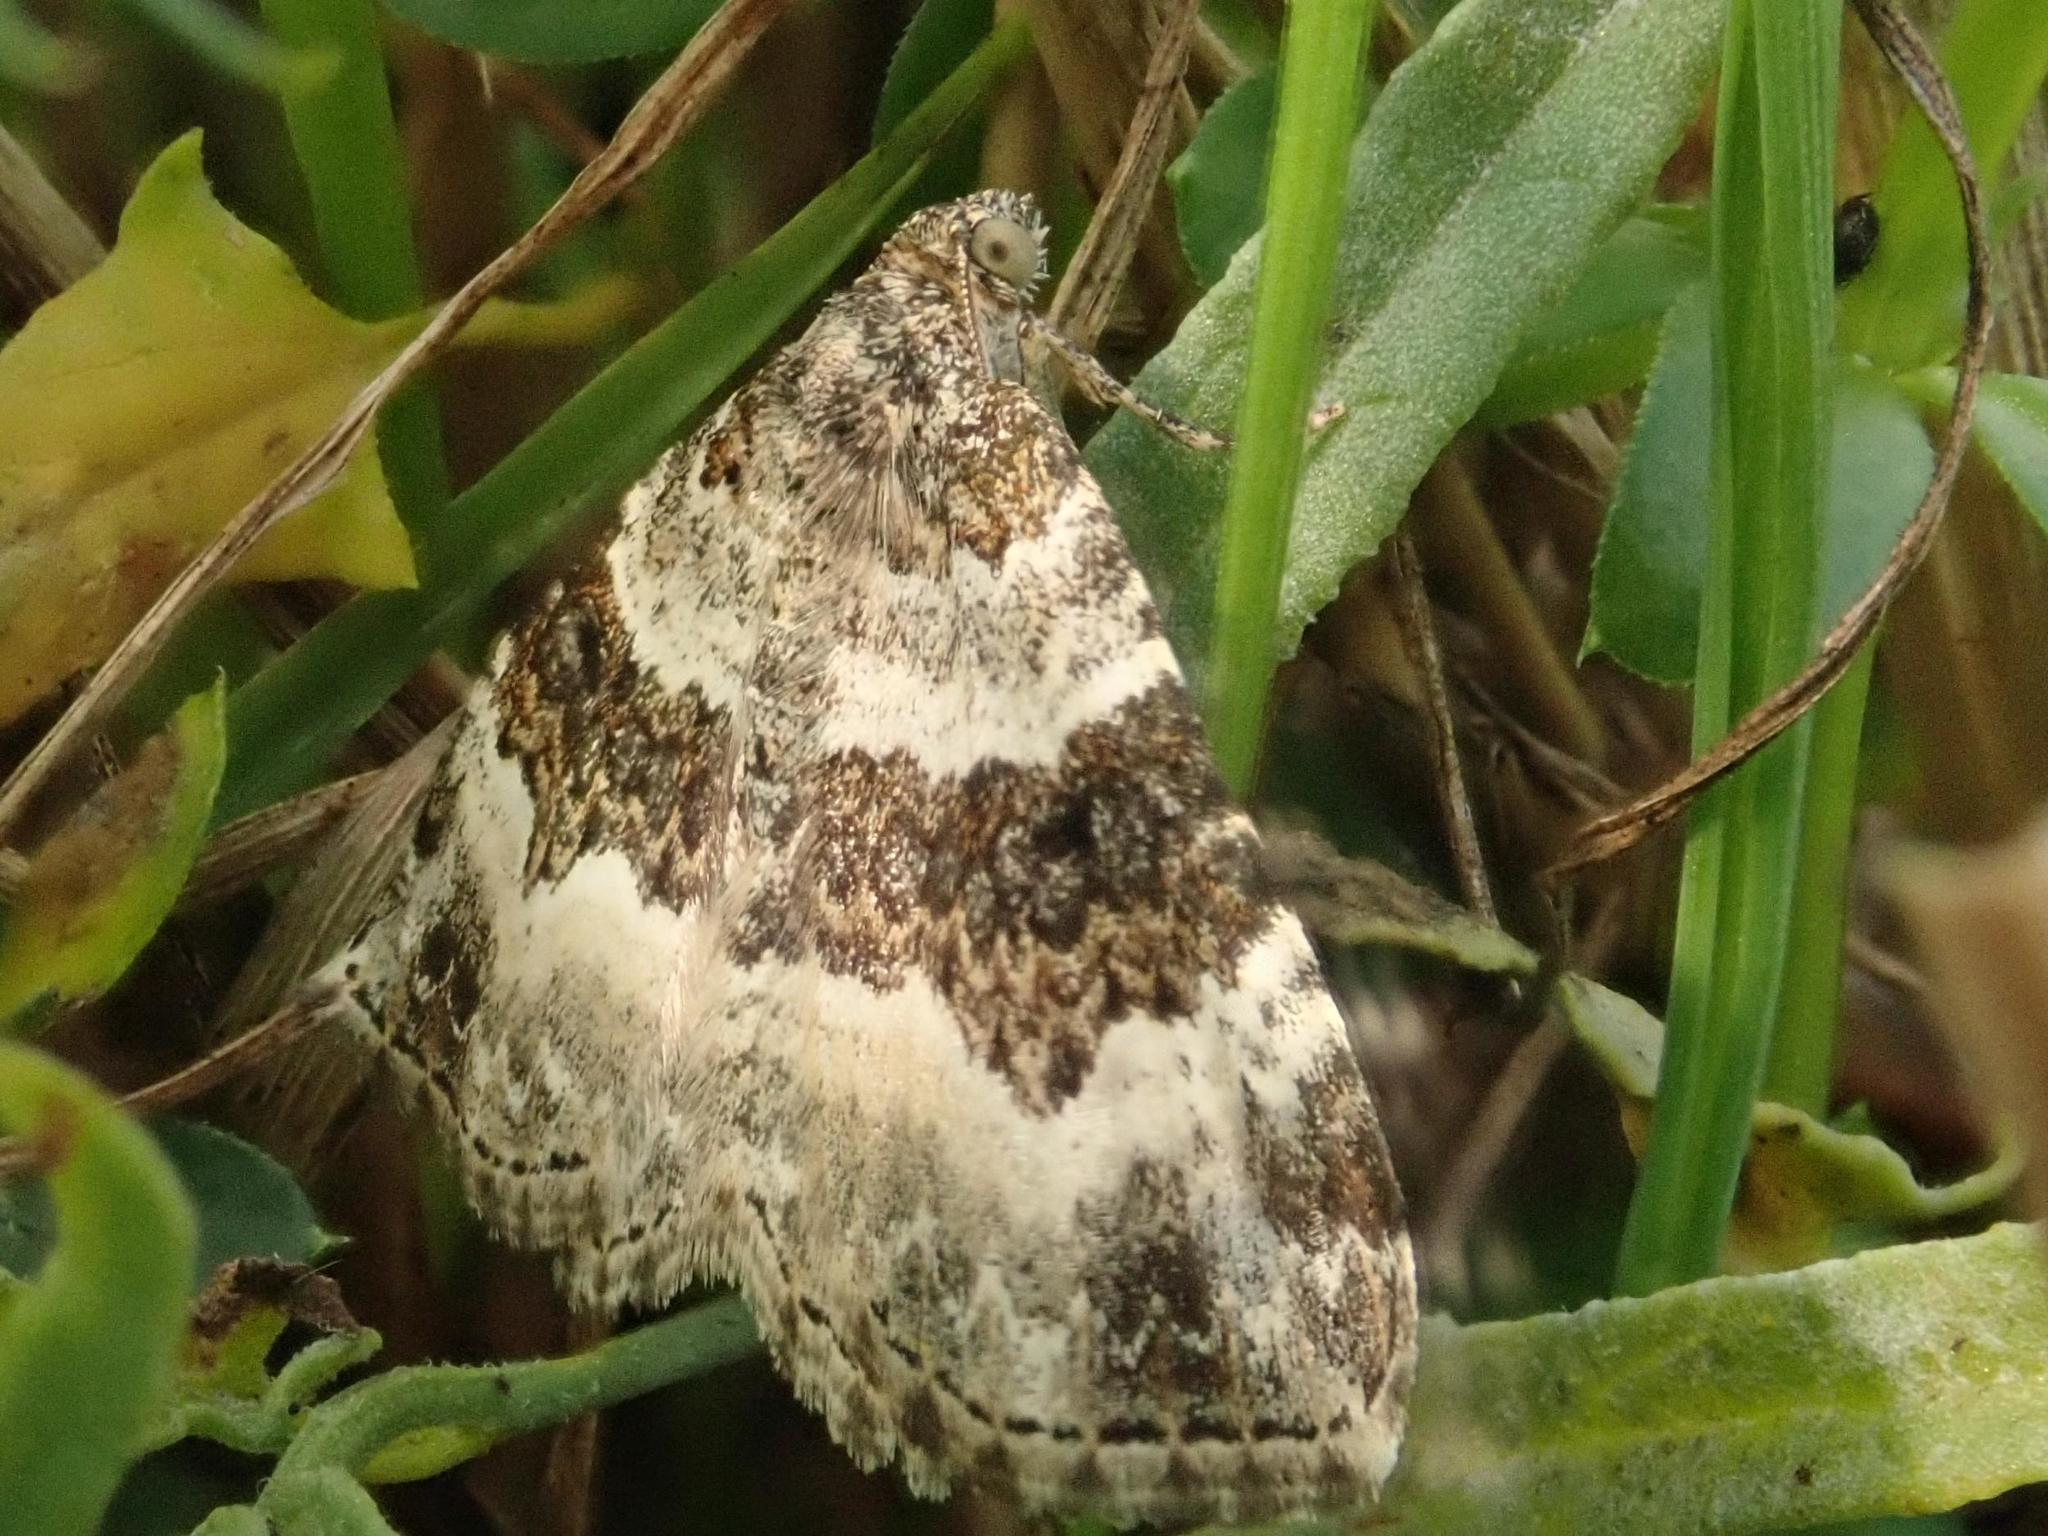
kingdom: Animalia
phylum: Arthropoda
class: Insecta
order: Lepidoptera
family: Geometridae
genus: Epirrhoe
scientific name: Epirrhoe alternata
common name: Common carpet
